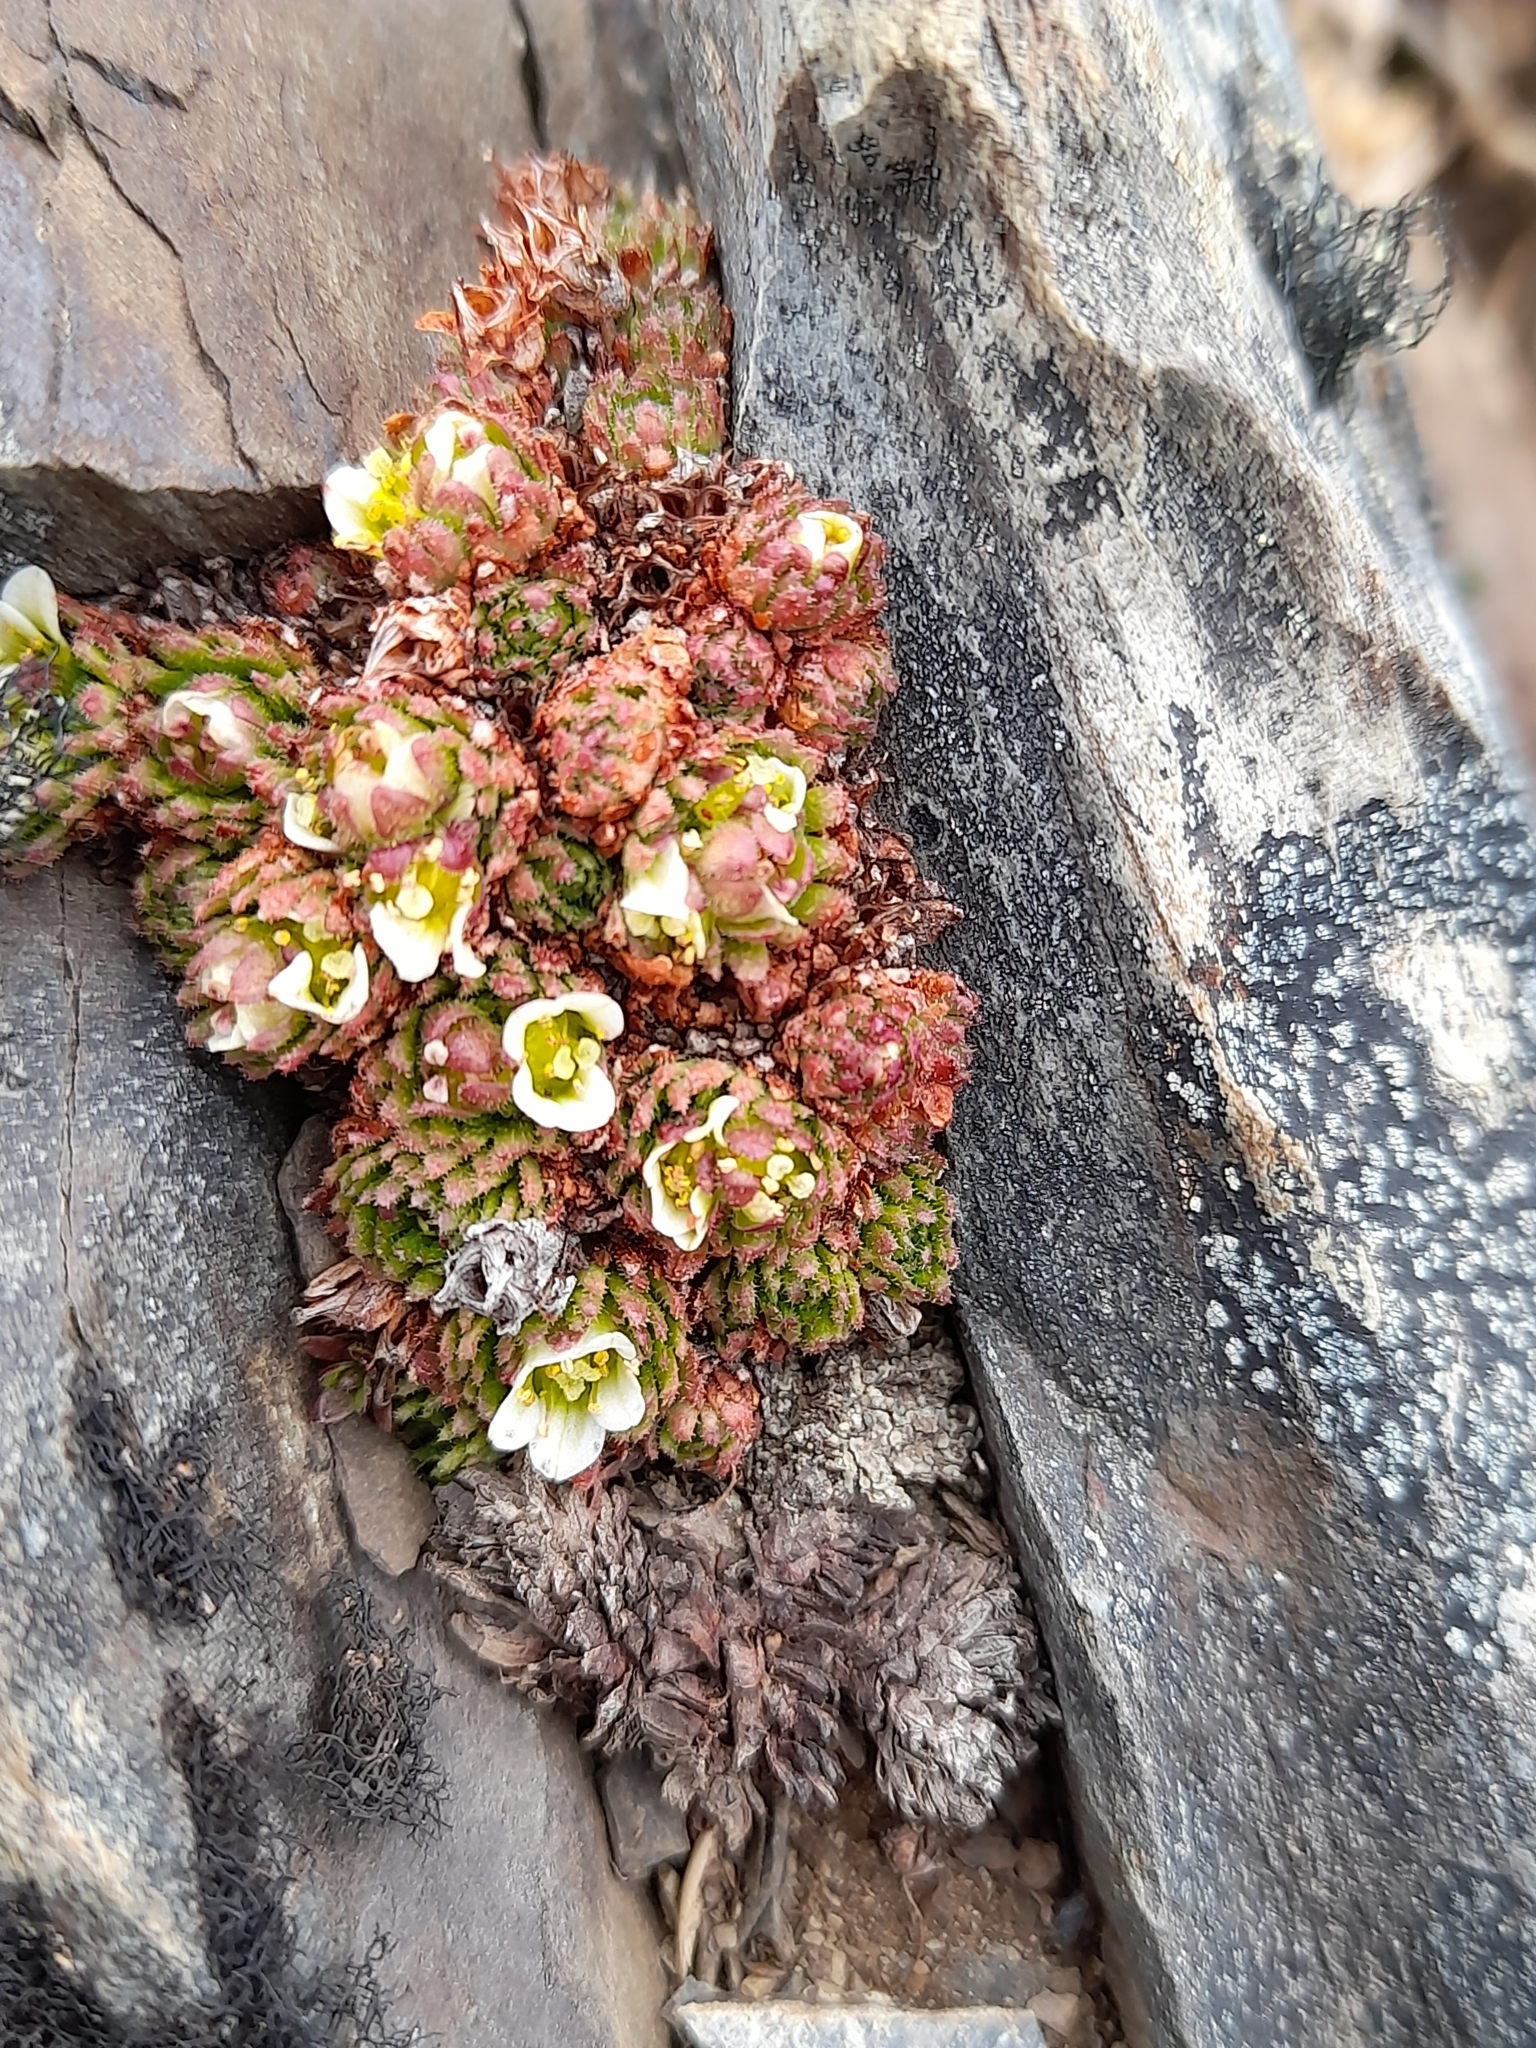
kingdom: Plantae
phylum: Tracheophyta
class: Magnoliopsida
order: Saxifragales
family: Saxifragaceae
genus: Saxifraga
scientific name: Saxifraga magellanica
